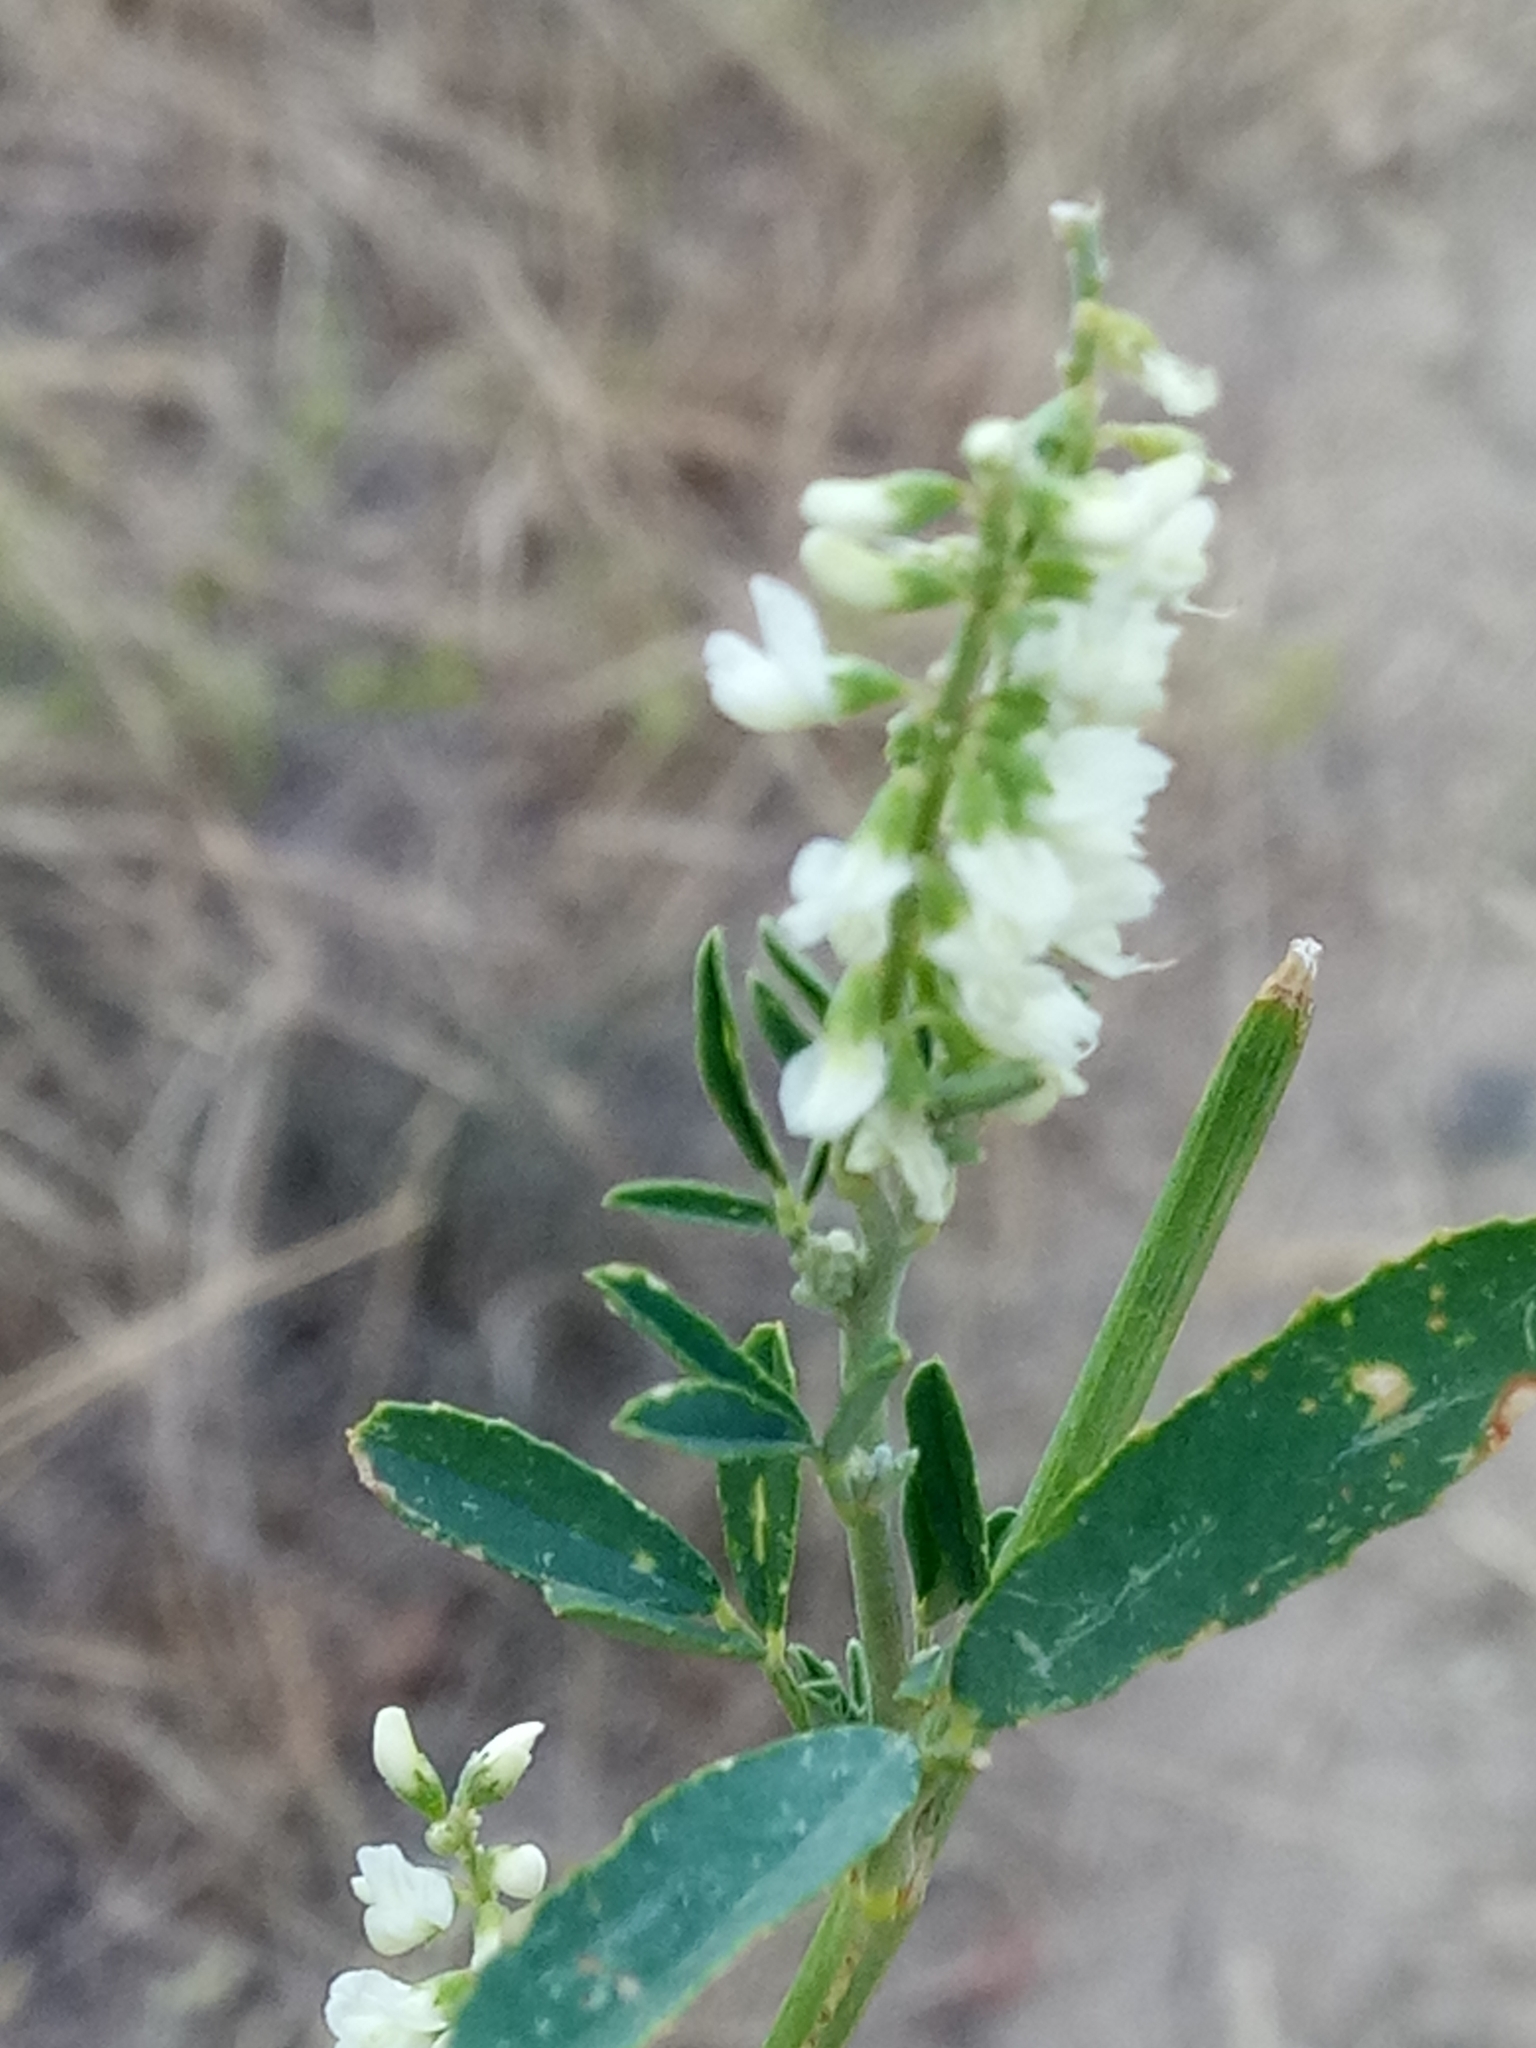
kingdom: Plantae
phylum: Tracheophyta
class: Magnoliopsida
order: Fabales
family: Fabaceae
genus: Melilotus
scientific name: Melilotus albus
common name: White melilot
